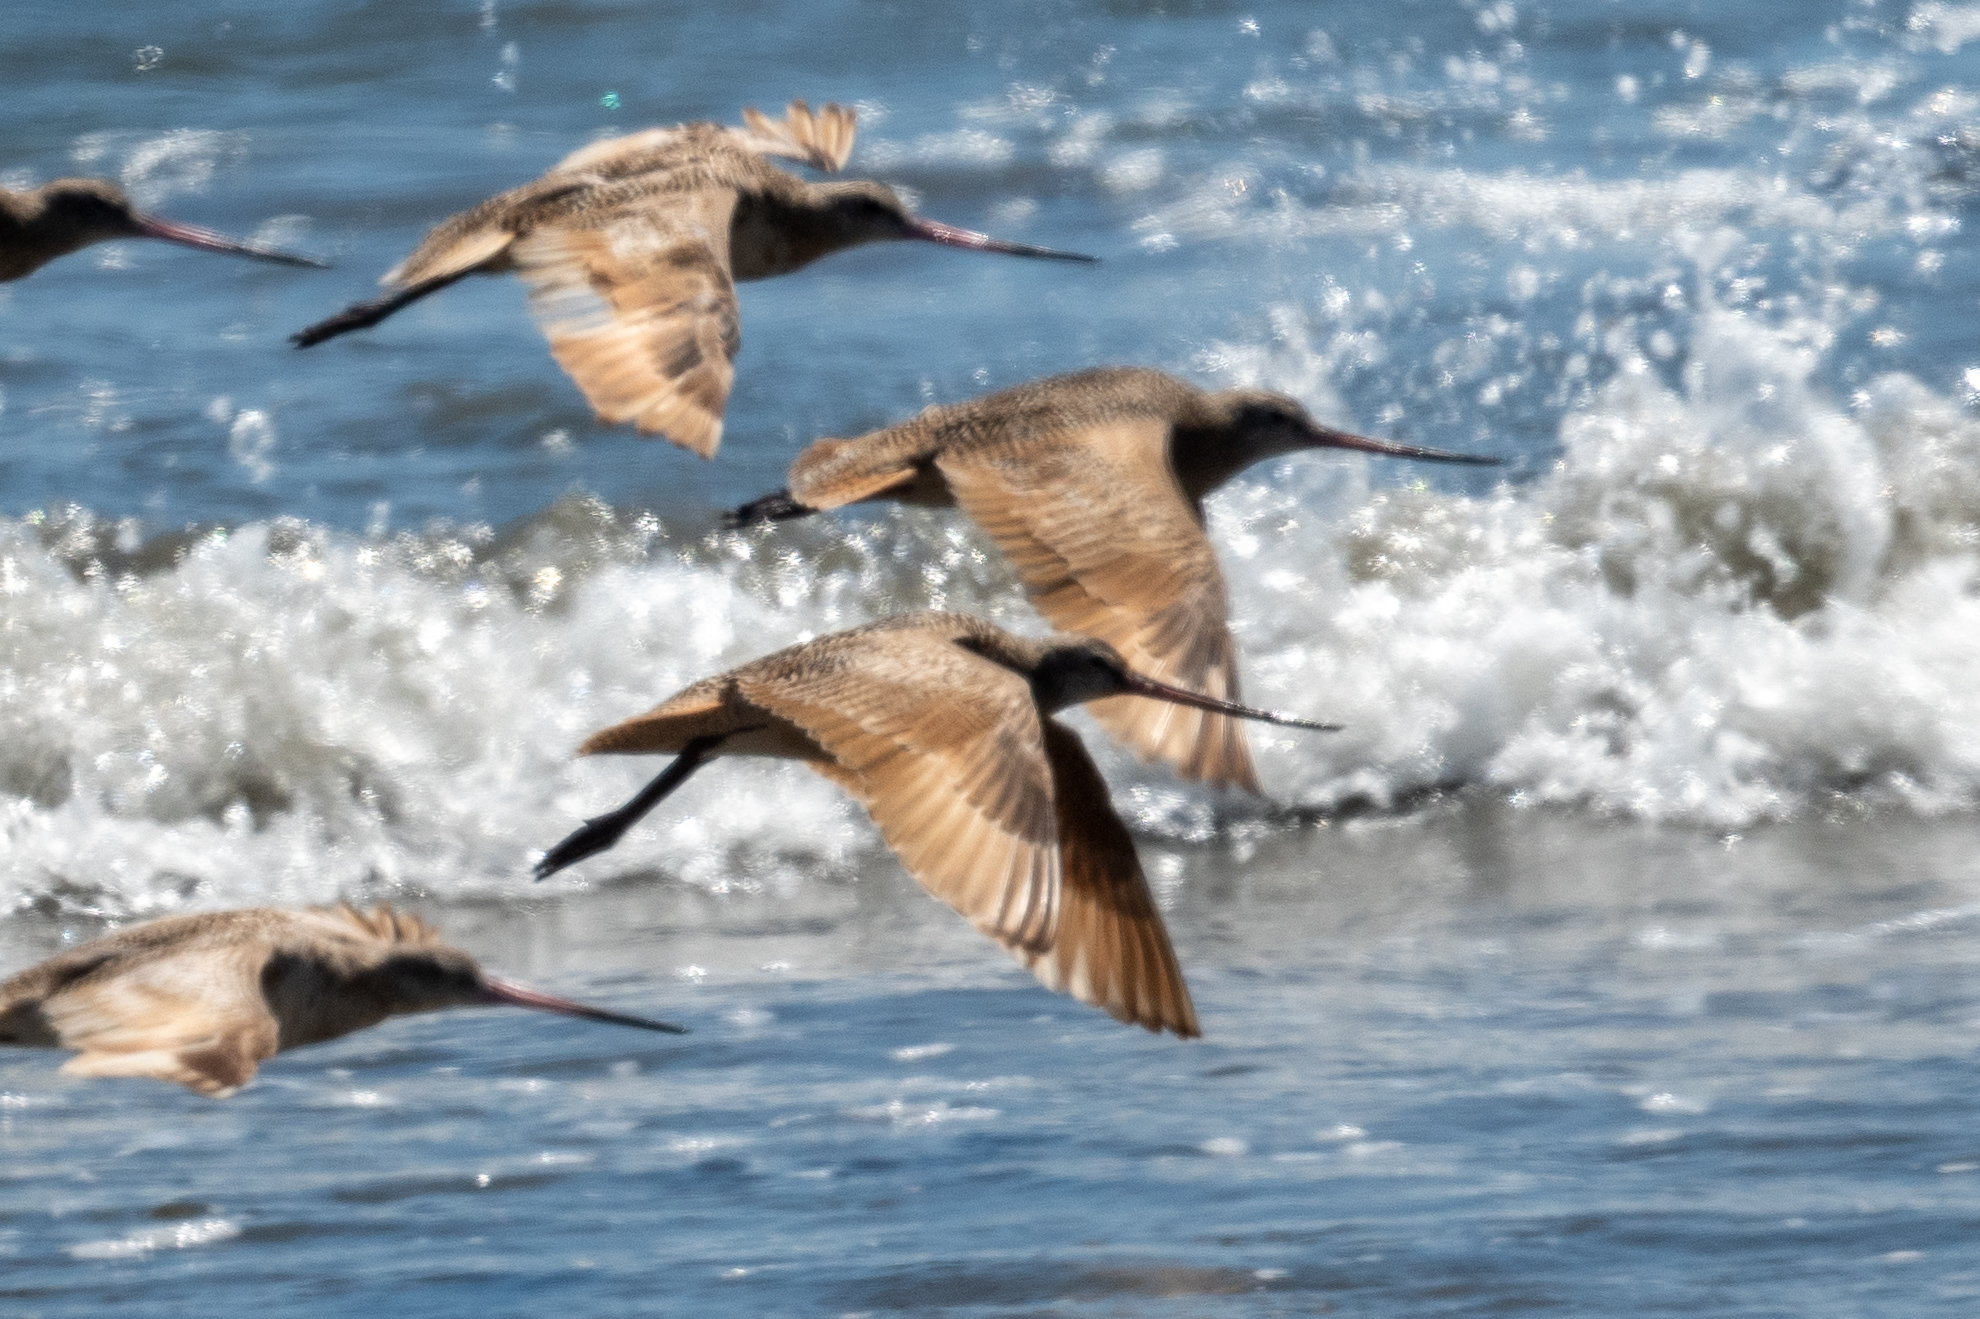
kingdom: Animalia
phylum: Chordata
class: Aves
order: Charadriiformes
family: Scolopacidae
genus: Limosa
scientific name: Limosa fedoa
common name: Marbled godwit
